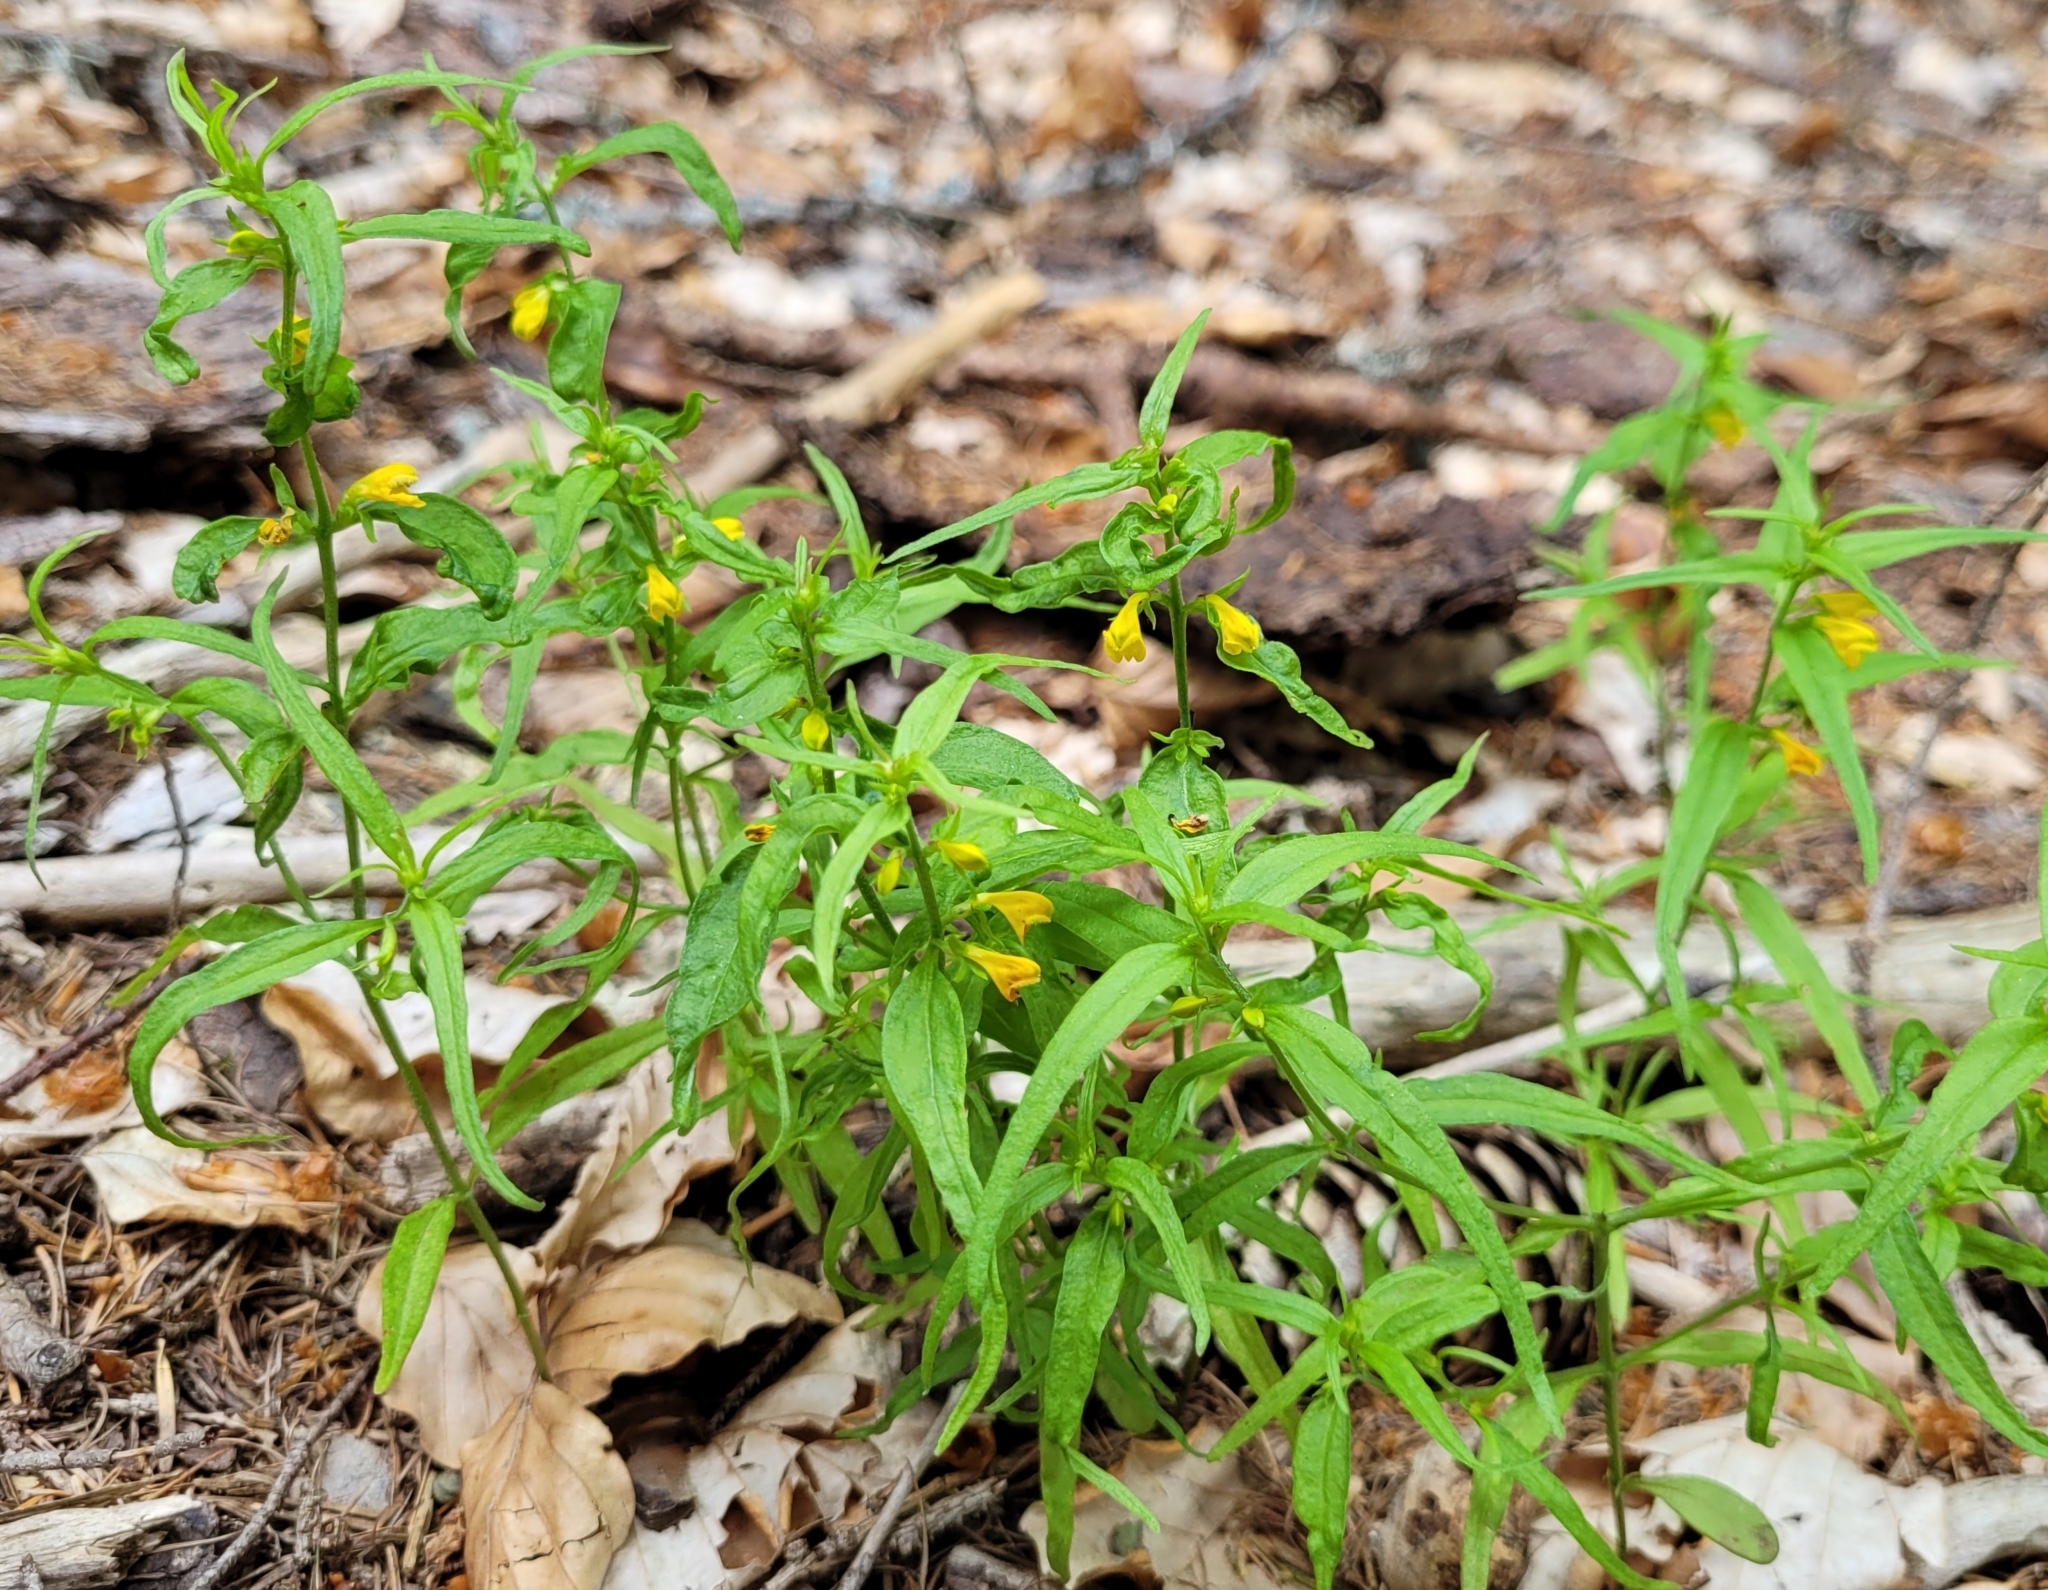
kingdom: Plantae
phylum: Tracheophyta
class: Magnoliopsida
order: Lamiales
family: Orobanchaceae
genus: Melampyrum
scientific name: Melampyrum sylvaticum
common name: Small cow-wheat
